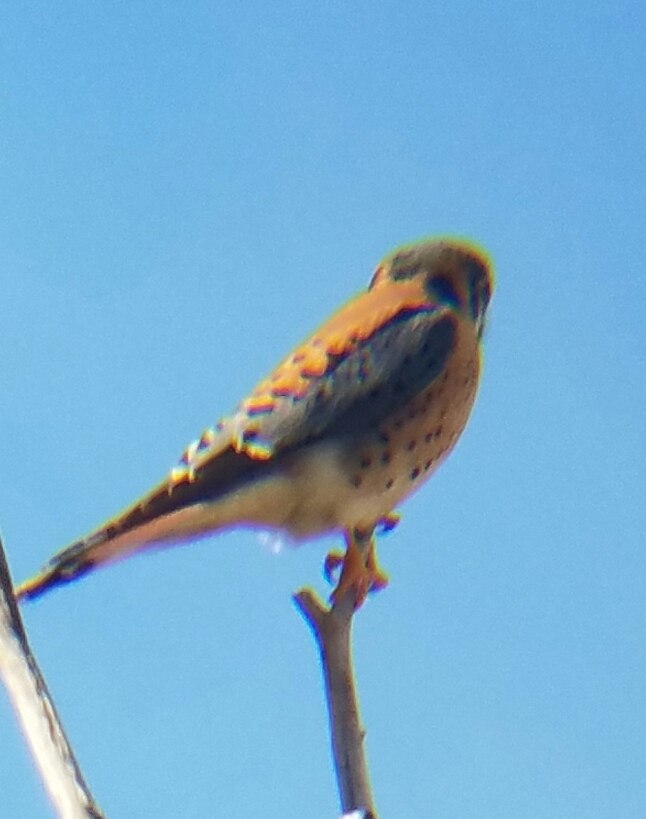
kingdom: Animalia
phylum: Chordata
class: Aves
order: Falconiformes
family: Falconidae
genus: Falco
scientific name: Falco sparverius
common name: American kestrel
